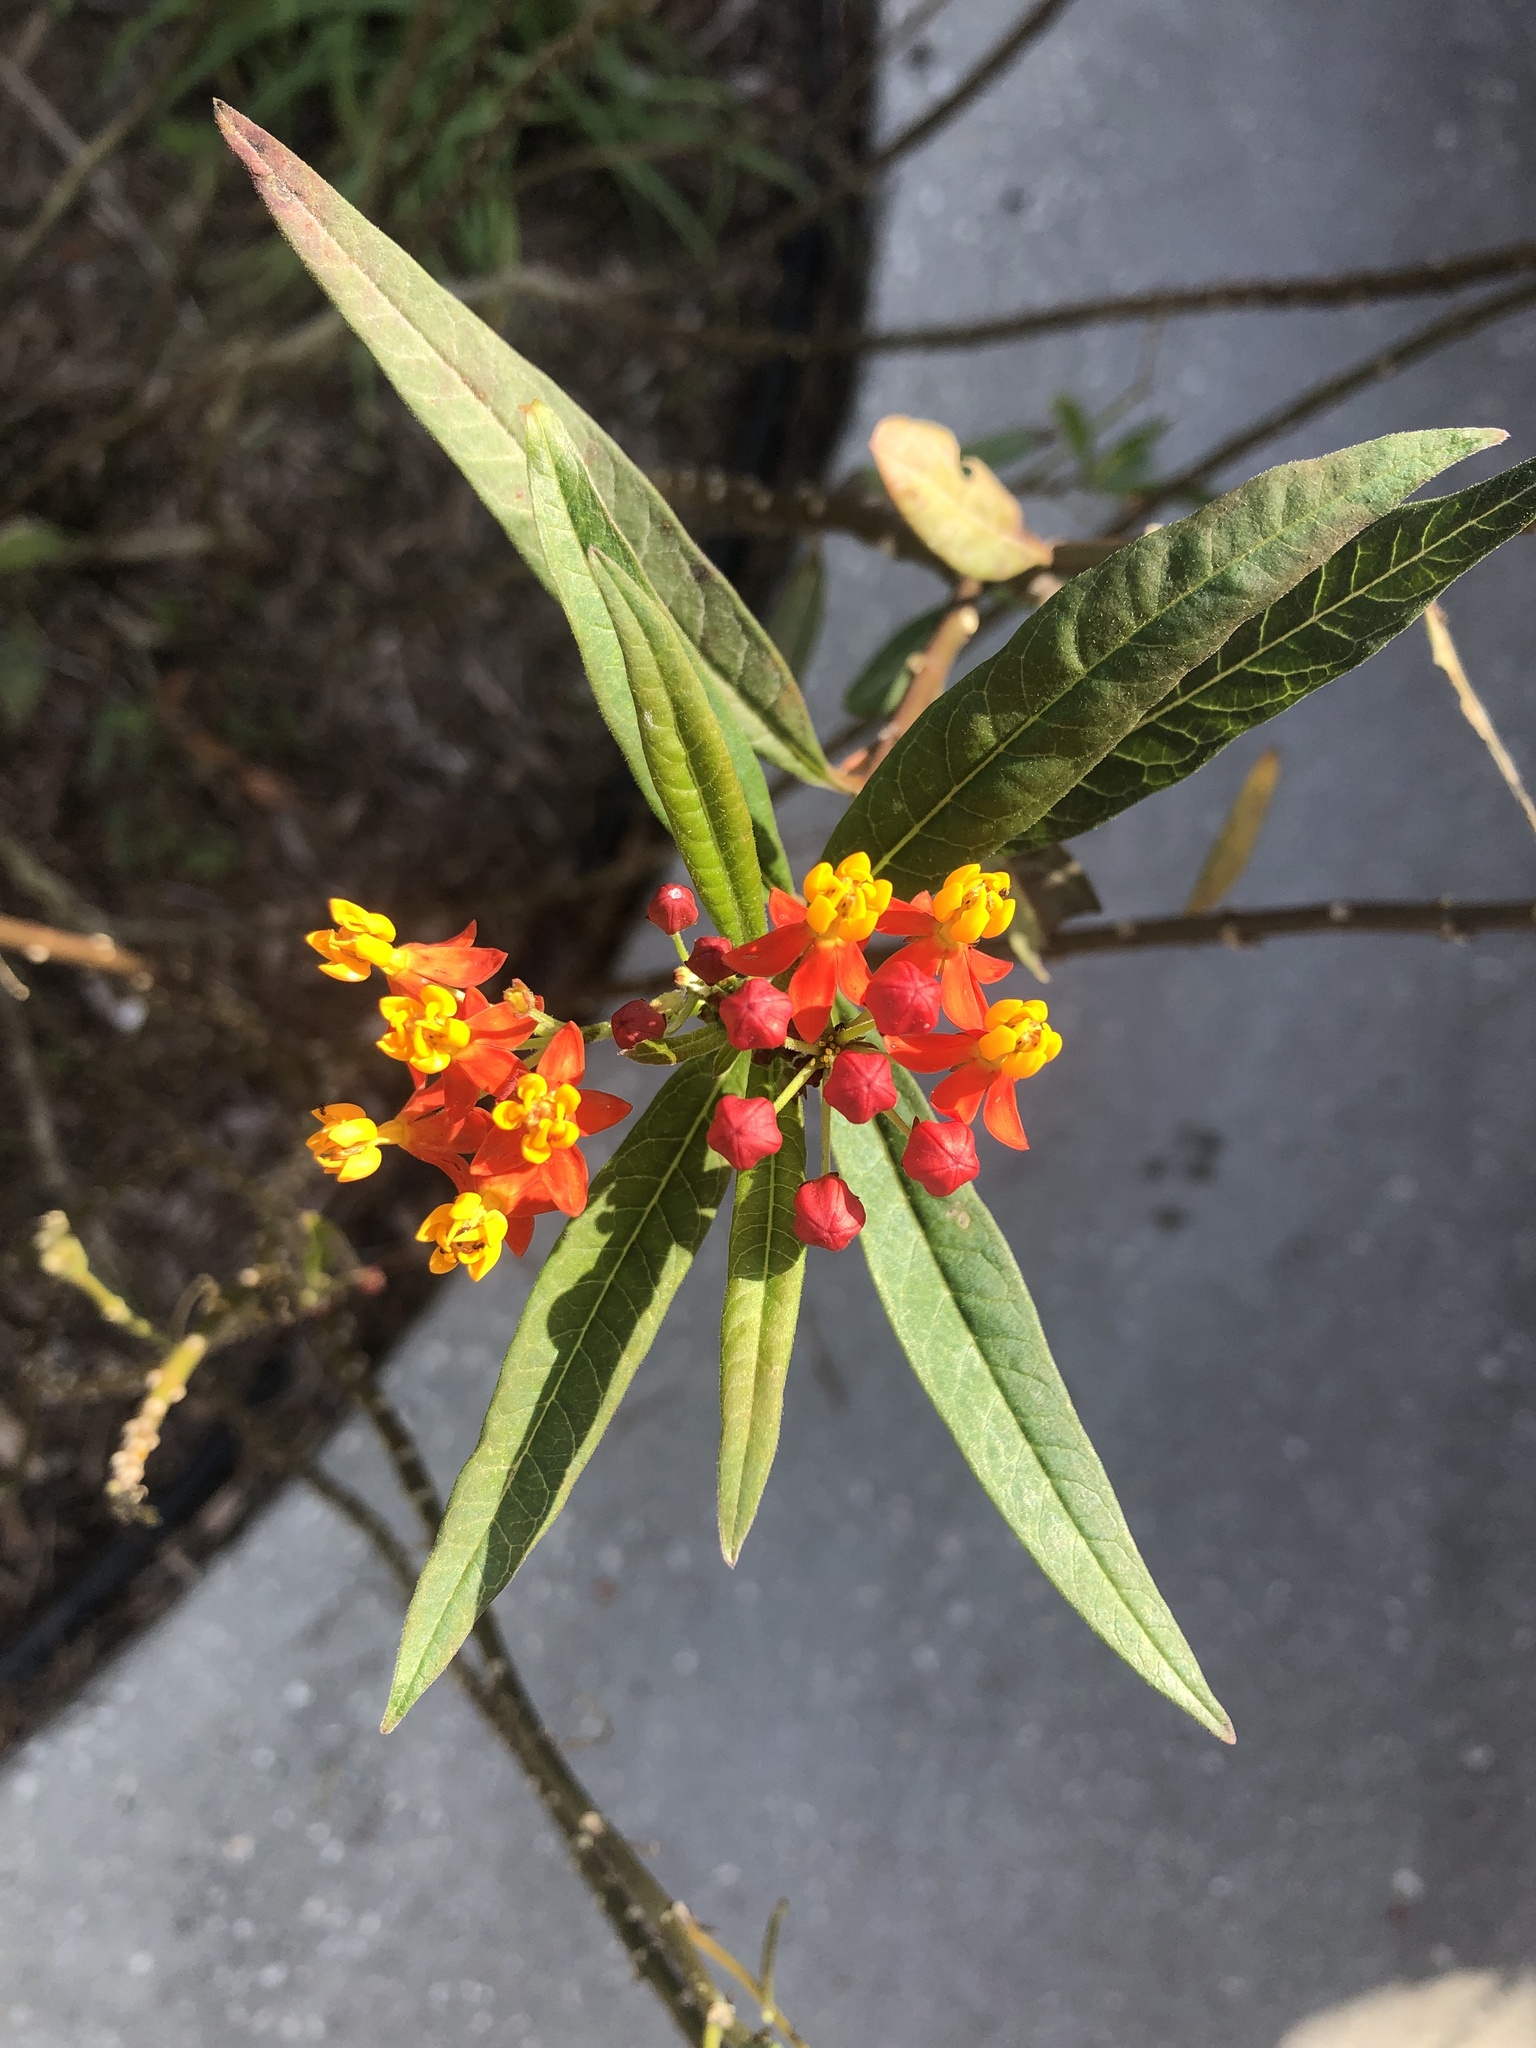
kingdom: Animalia
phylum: Arthropoda
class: Insecta
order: Hymenoptera
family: Eumenidae
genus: Polistes
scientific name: Polistes major
